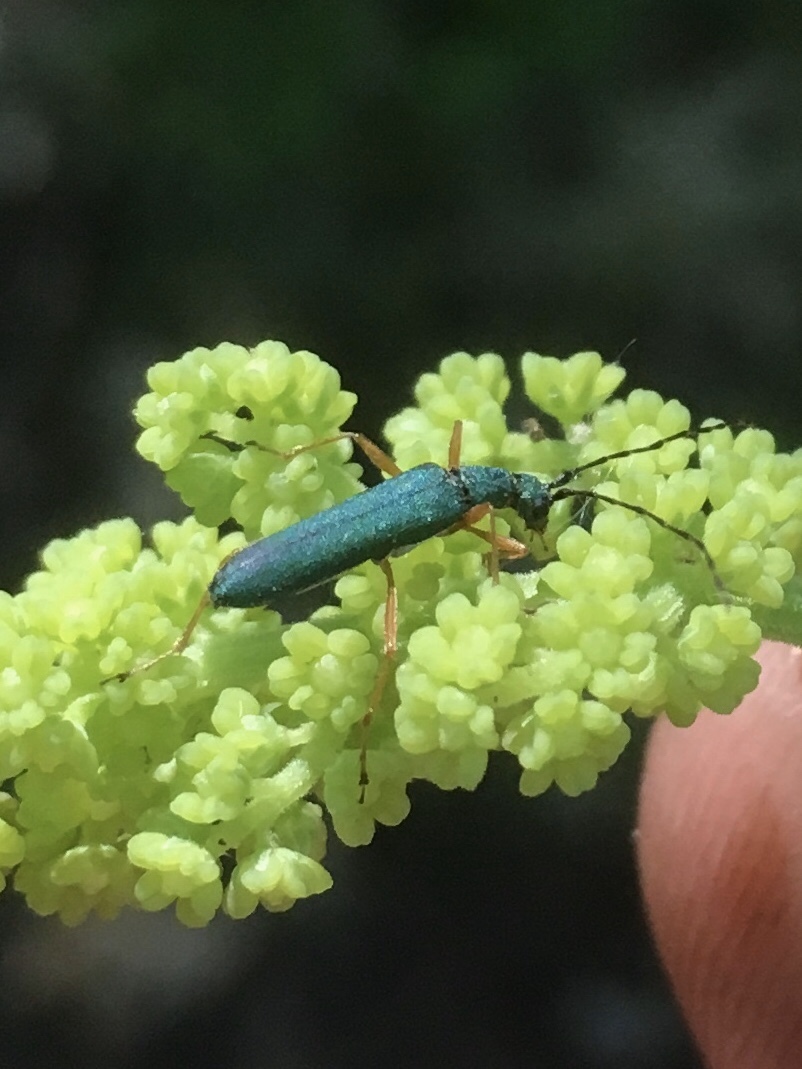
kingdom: Animalia
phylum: Arthropoda
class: Insecta
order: Coleoptera
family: Cerambycidae
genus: Encyclops
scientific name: Encyclops caerulea
